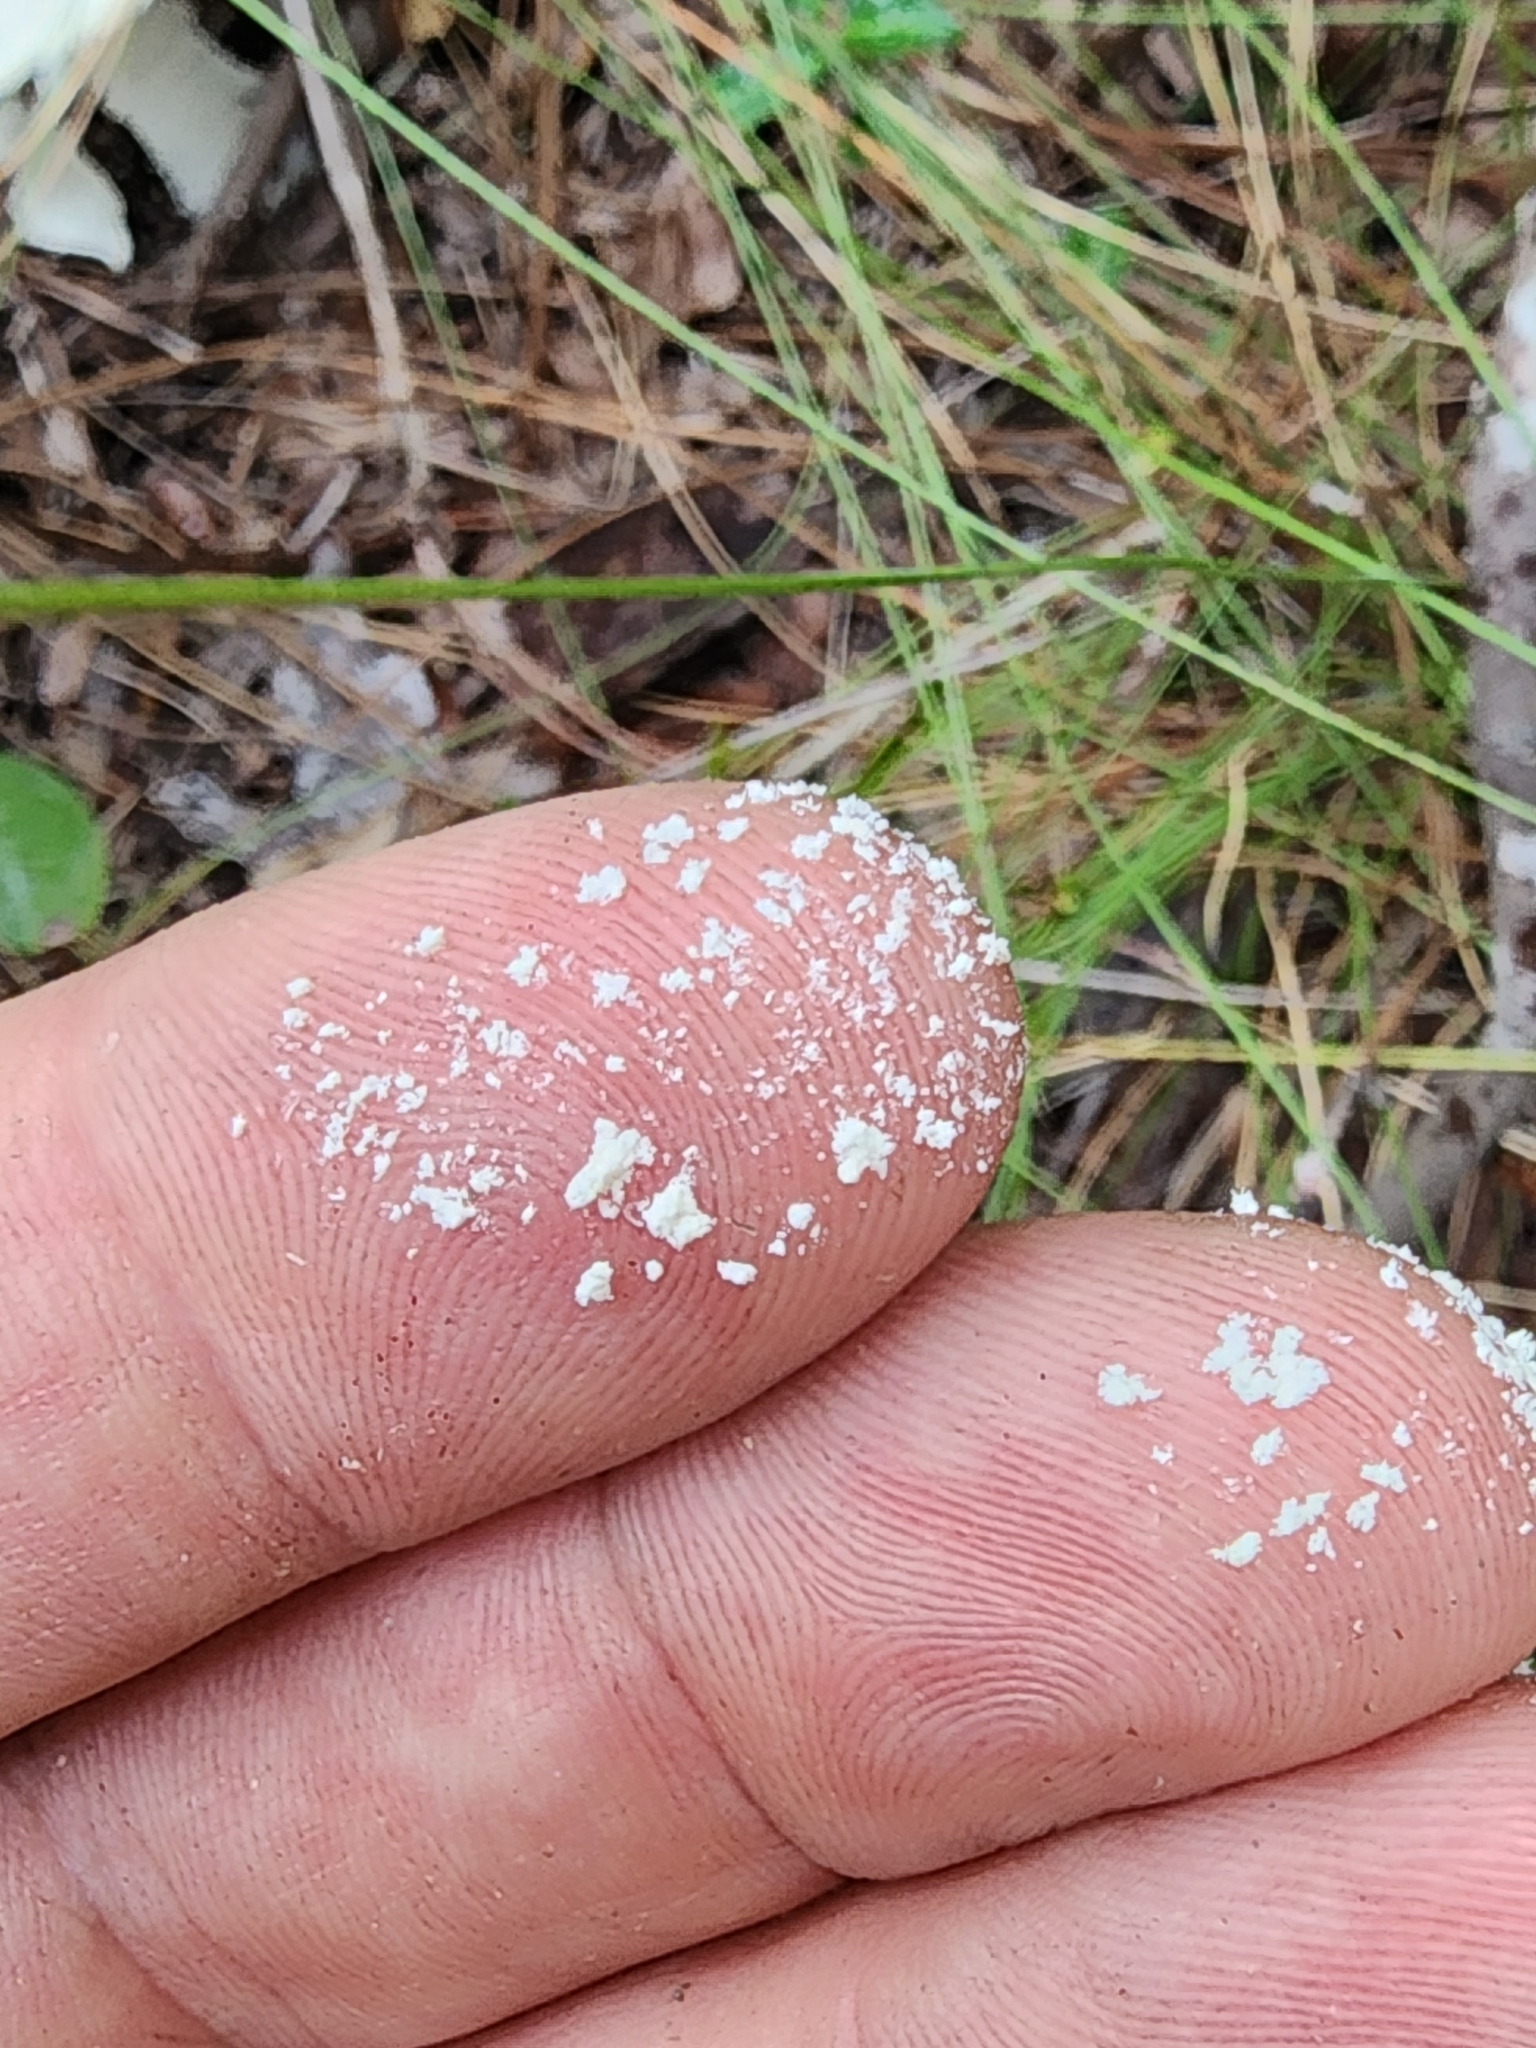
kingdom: Fungi
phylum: Basidiomycota
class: Agaricomycetes
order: Agaricales
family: Amanitaceae
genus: Amanita
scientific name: Amanita polypyramis
